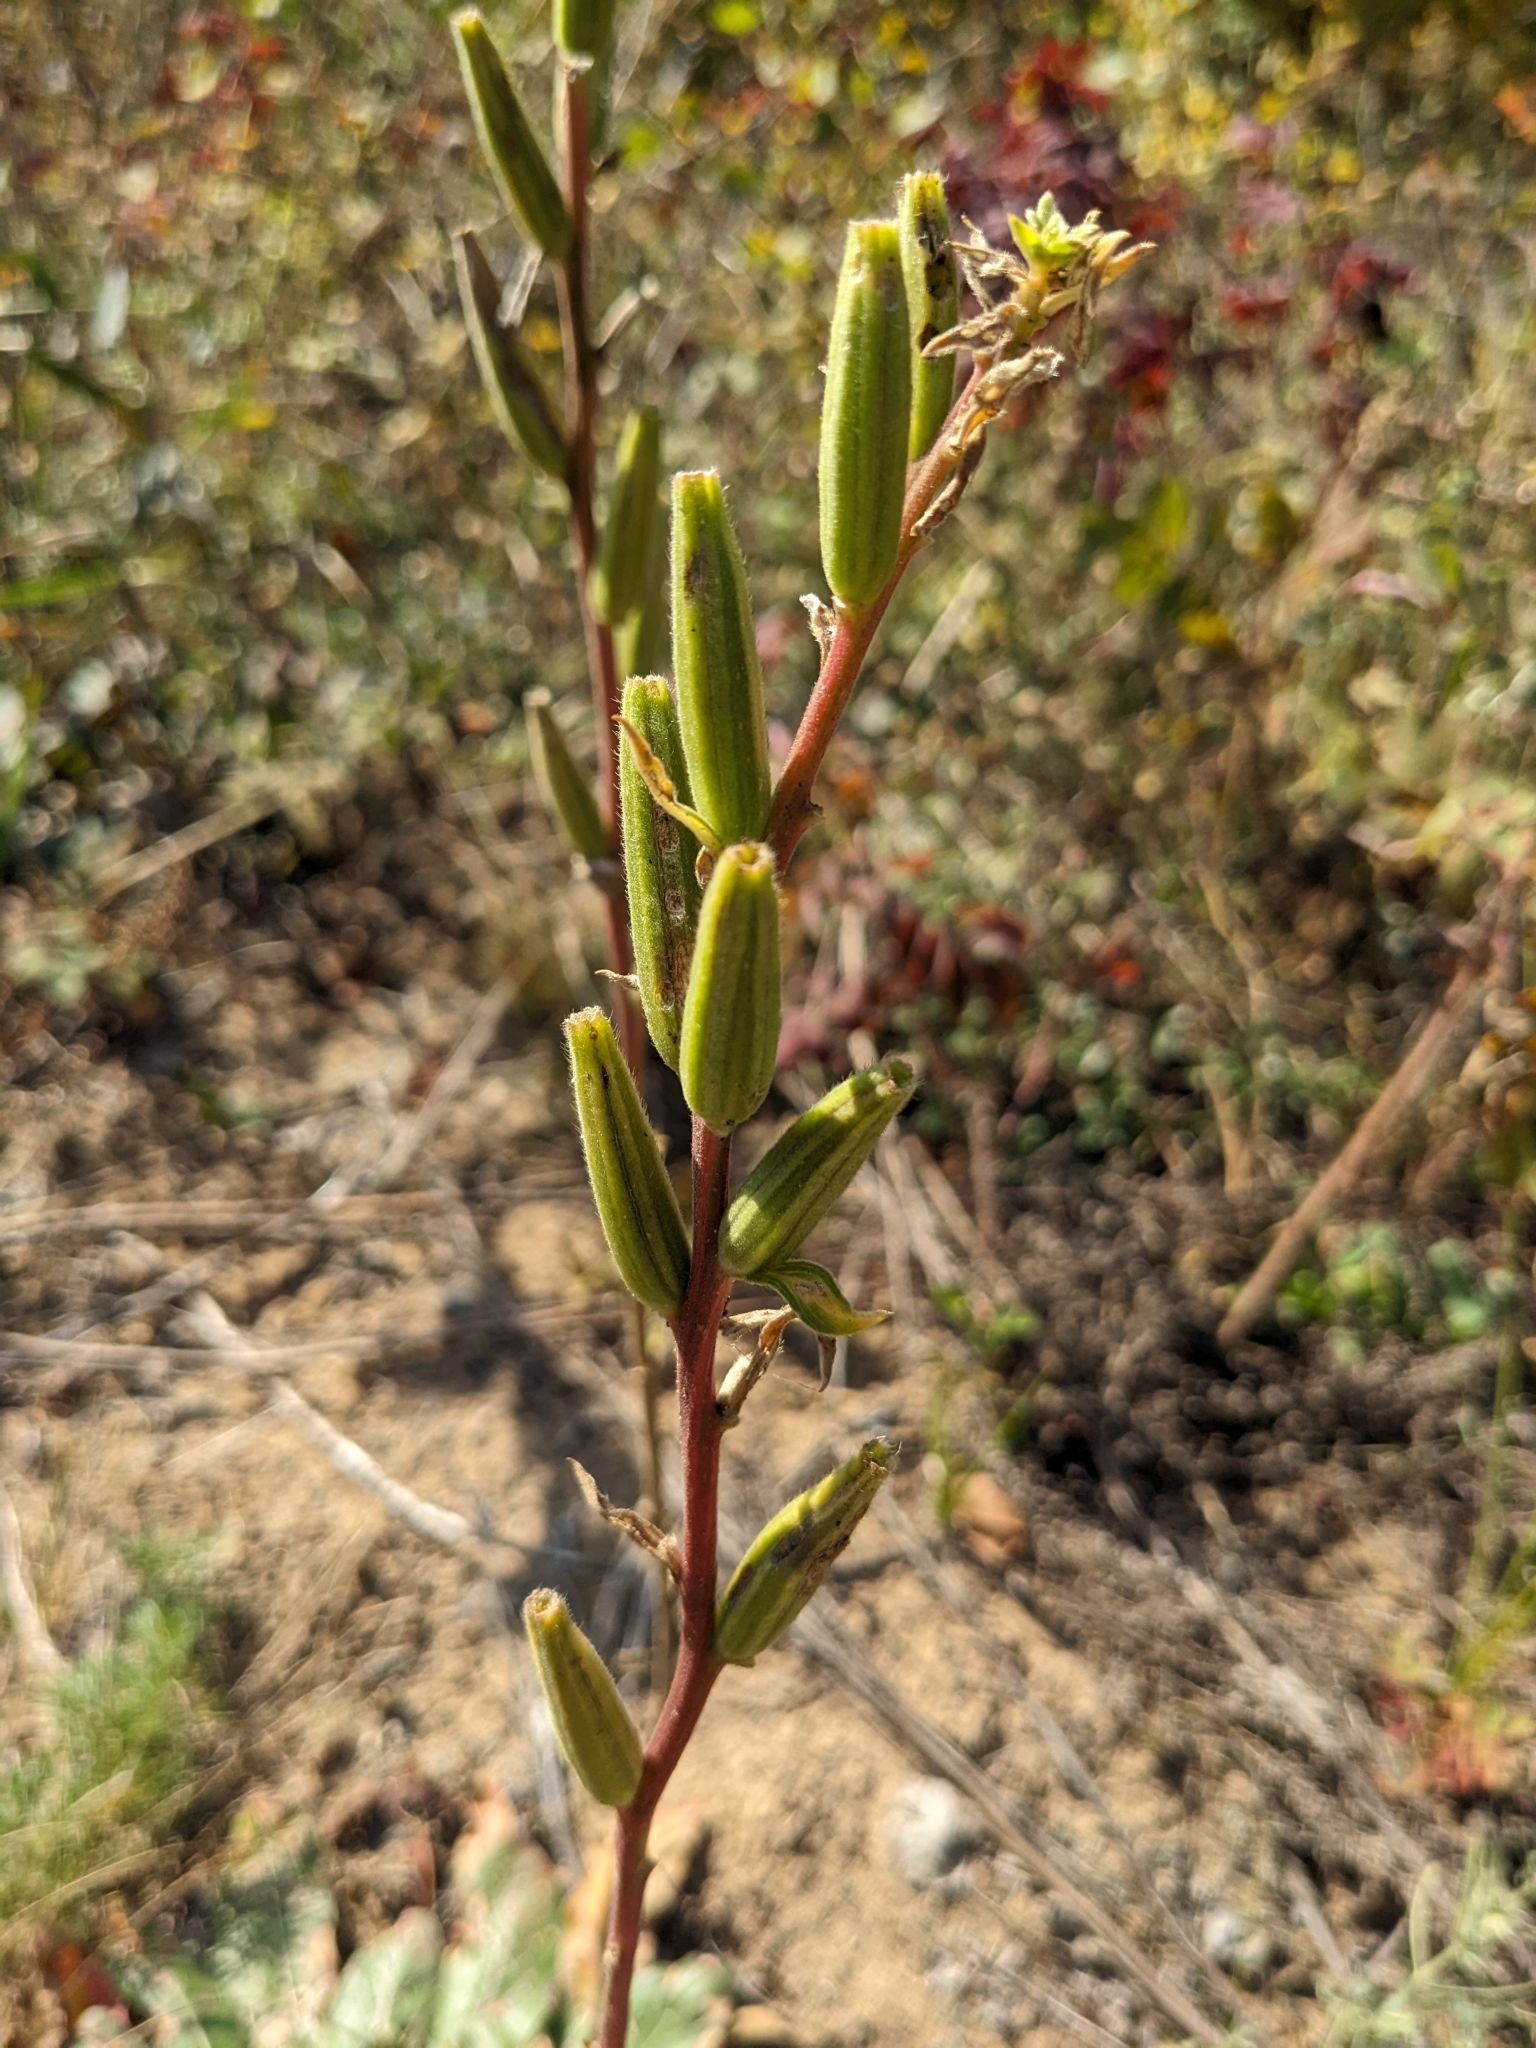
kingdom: Plantae
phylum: Tracheophyta
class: Magnoliopsida
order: Myrtales
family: Onagraceae
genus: Oenothera
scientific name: Oenothera biennis
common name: Common evening-primrose
